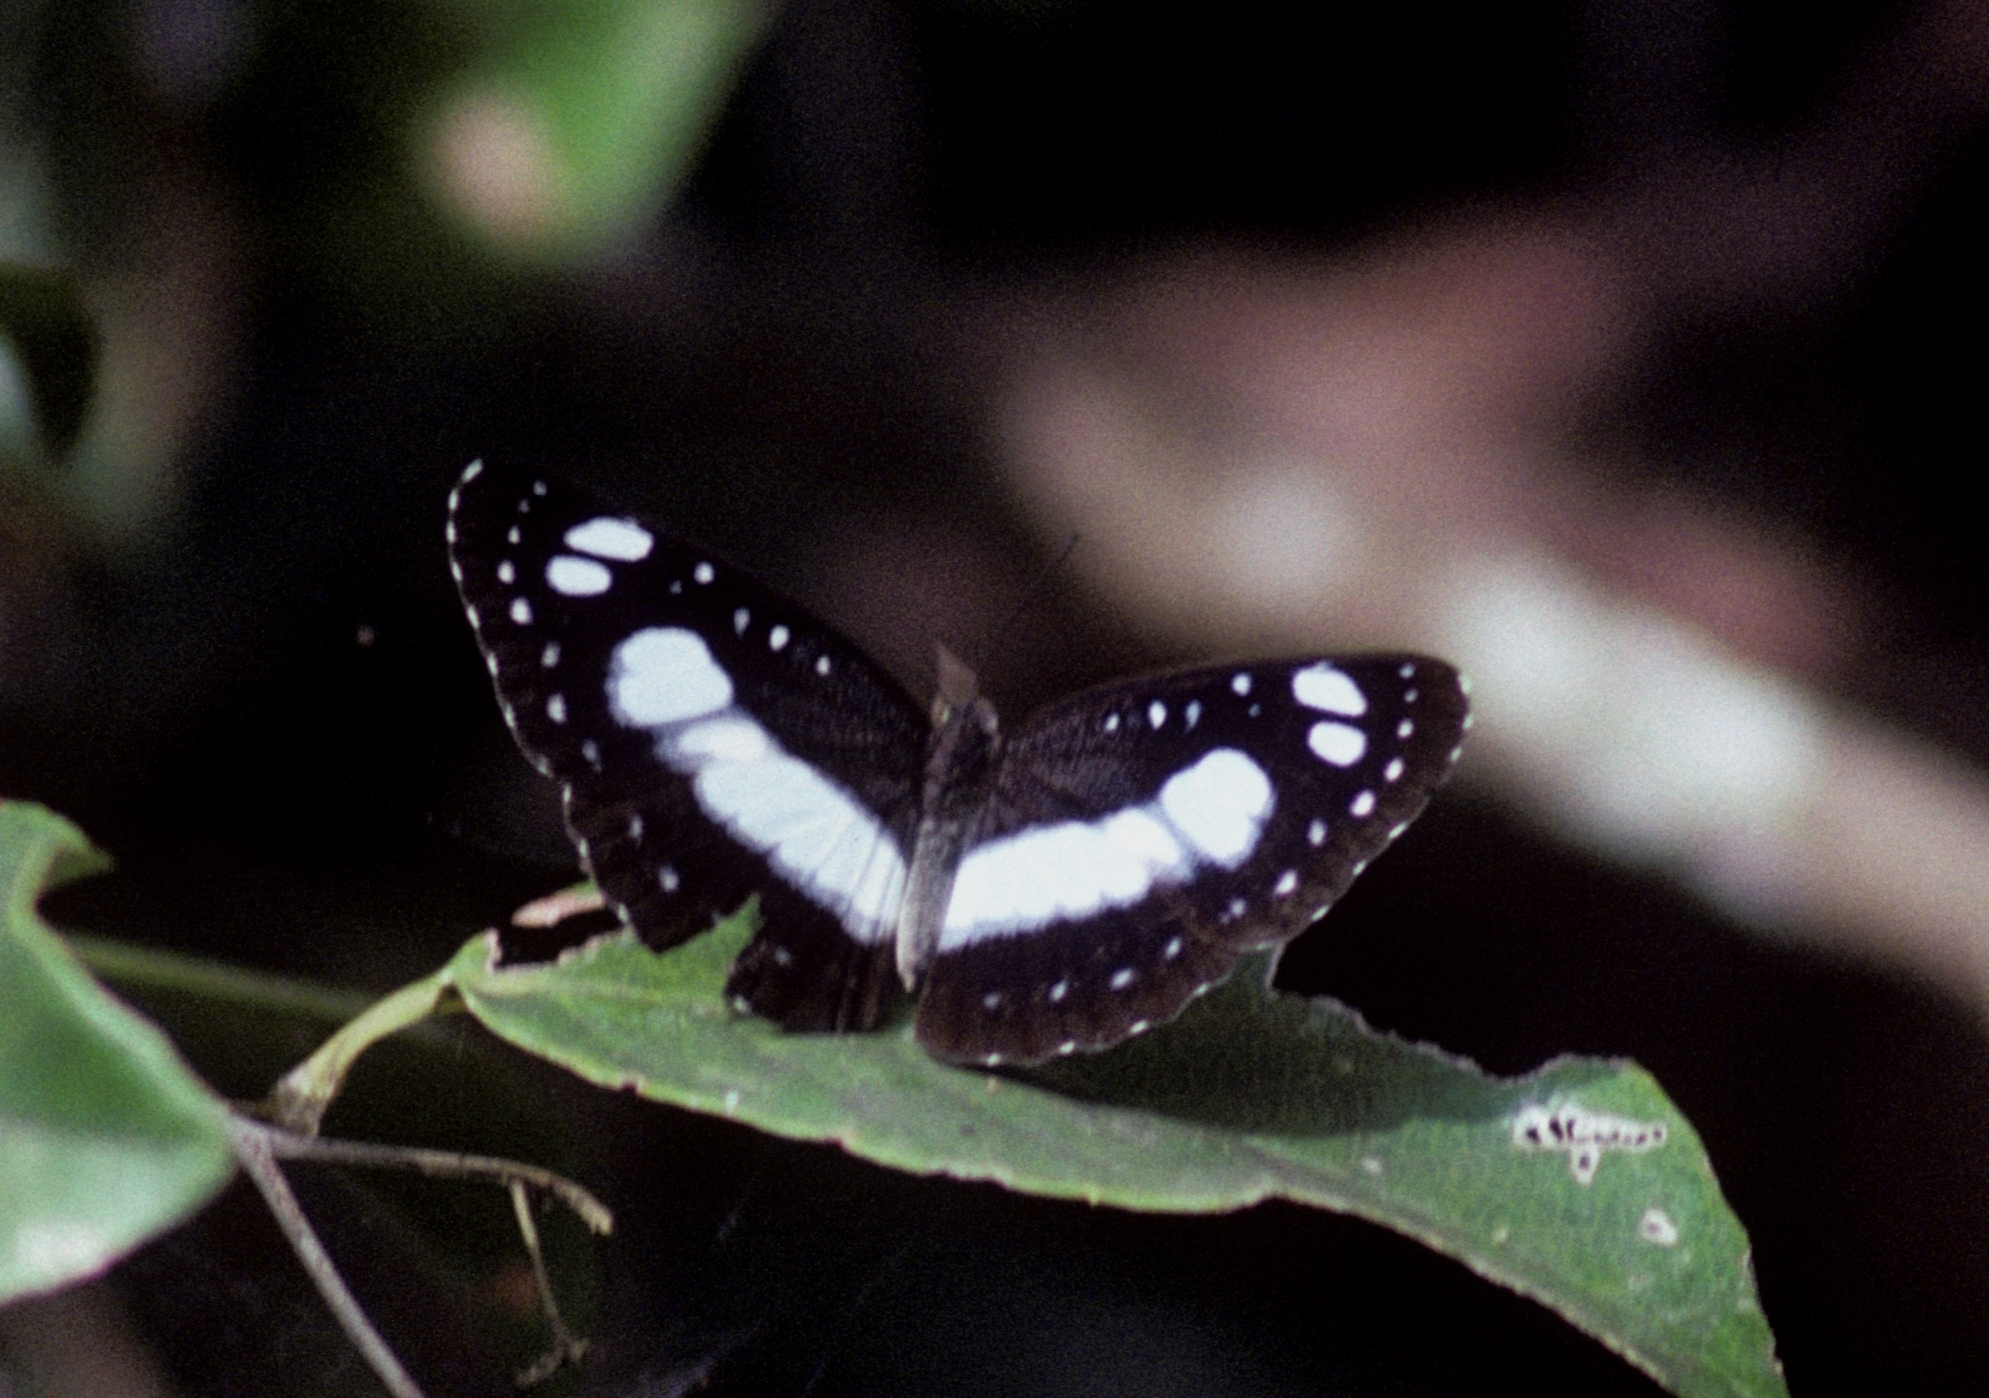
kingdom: Animalia
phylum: Arthropoda
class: Insecta
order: Lepidoptera
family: Nymphalidae
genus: Pantoporia
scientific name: Pantoporia venilia
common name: Cape york aeroplane
